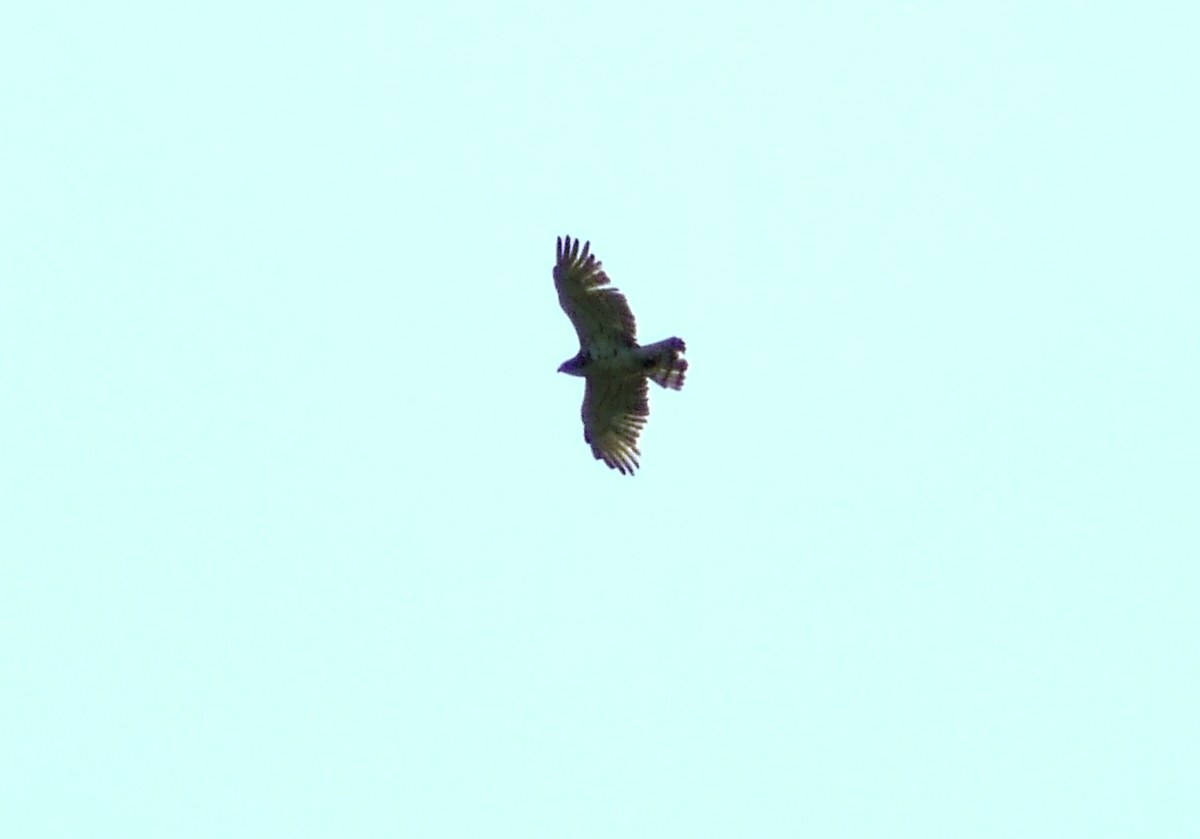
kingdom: Animalia
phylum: Chordata
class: Aves
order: Accipitriformes
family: Accipitridae
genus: Circaetus
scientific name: Circaetus gallicus
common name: Short-toed snake eagle
